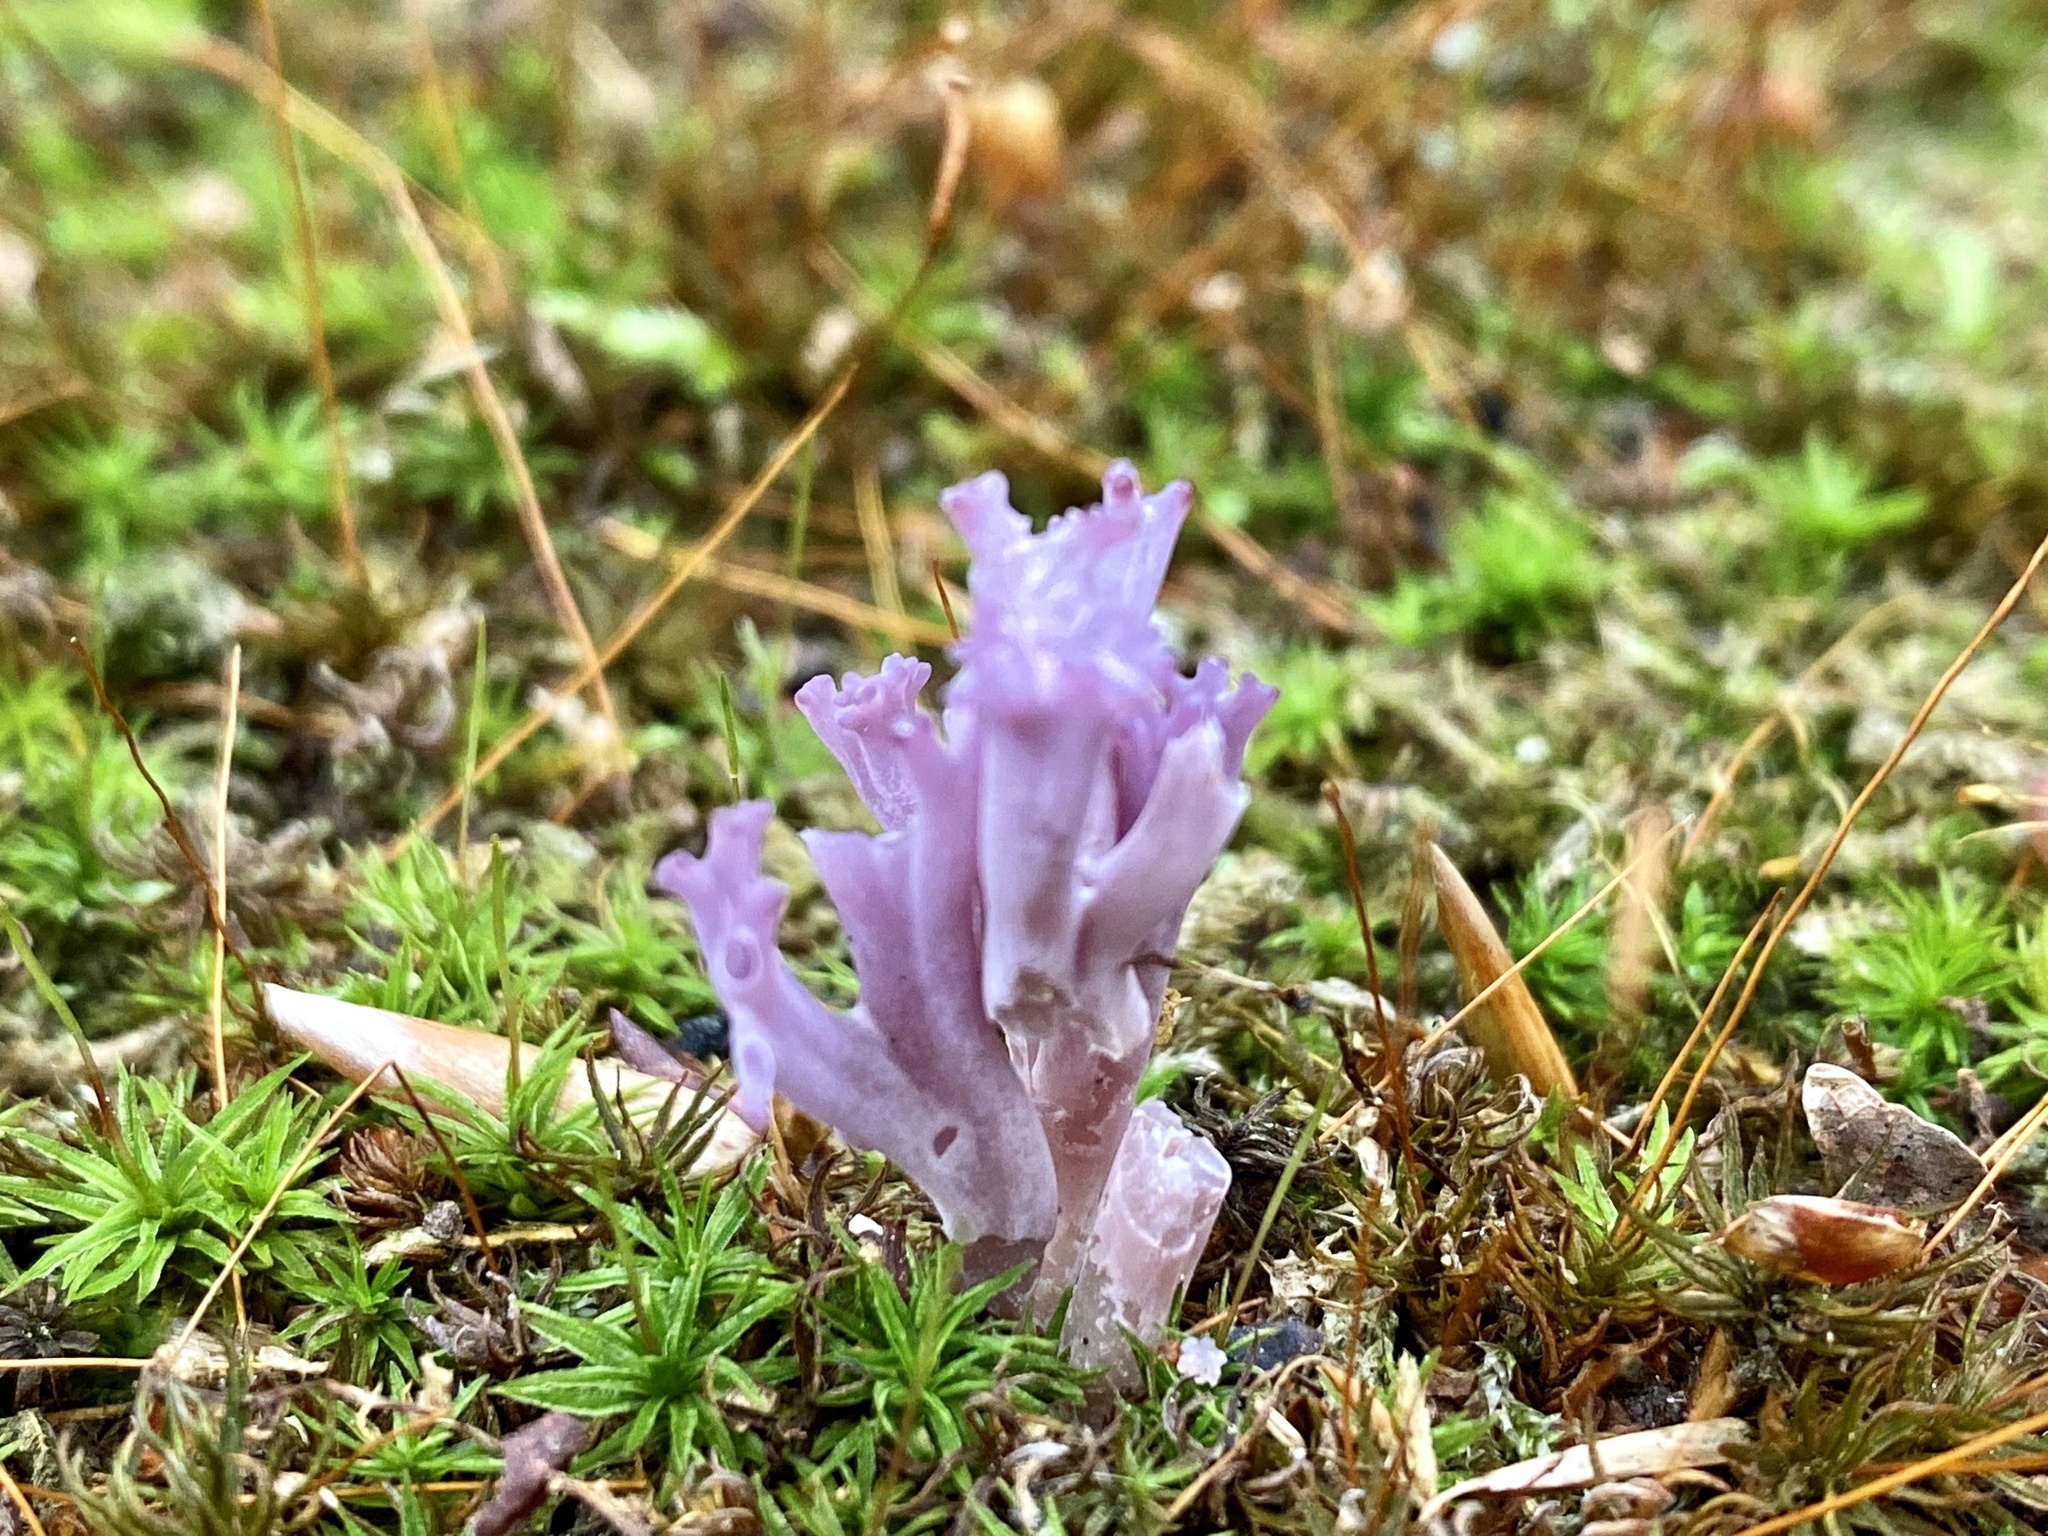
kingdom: Fungi
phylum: Basidiomycota
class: Agaricomycetes
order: Agaricales
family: Clavariaceae
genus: Clavaria
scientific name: Clavaria zollingeri
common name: Violet coral
